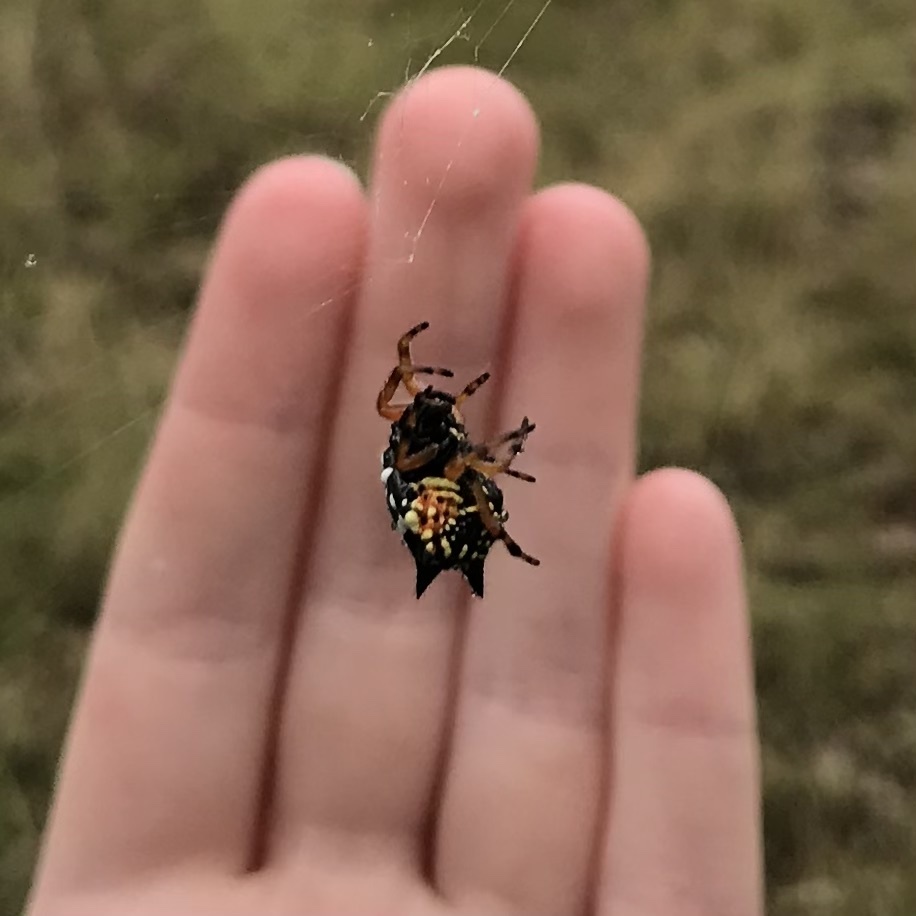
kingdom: Animalia
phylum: Arthropoda
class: Arachnida
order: Araneae
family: Araneidae
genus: Austracantha
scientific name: Austracantha minax
